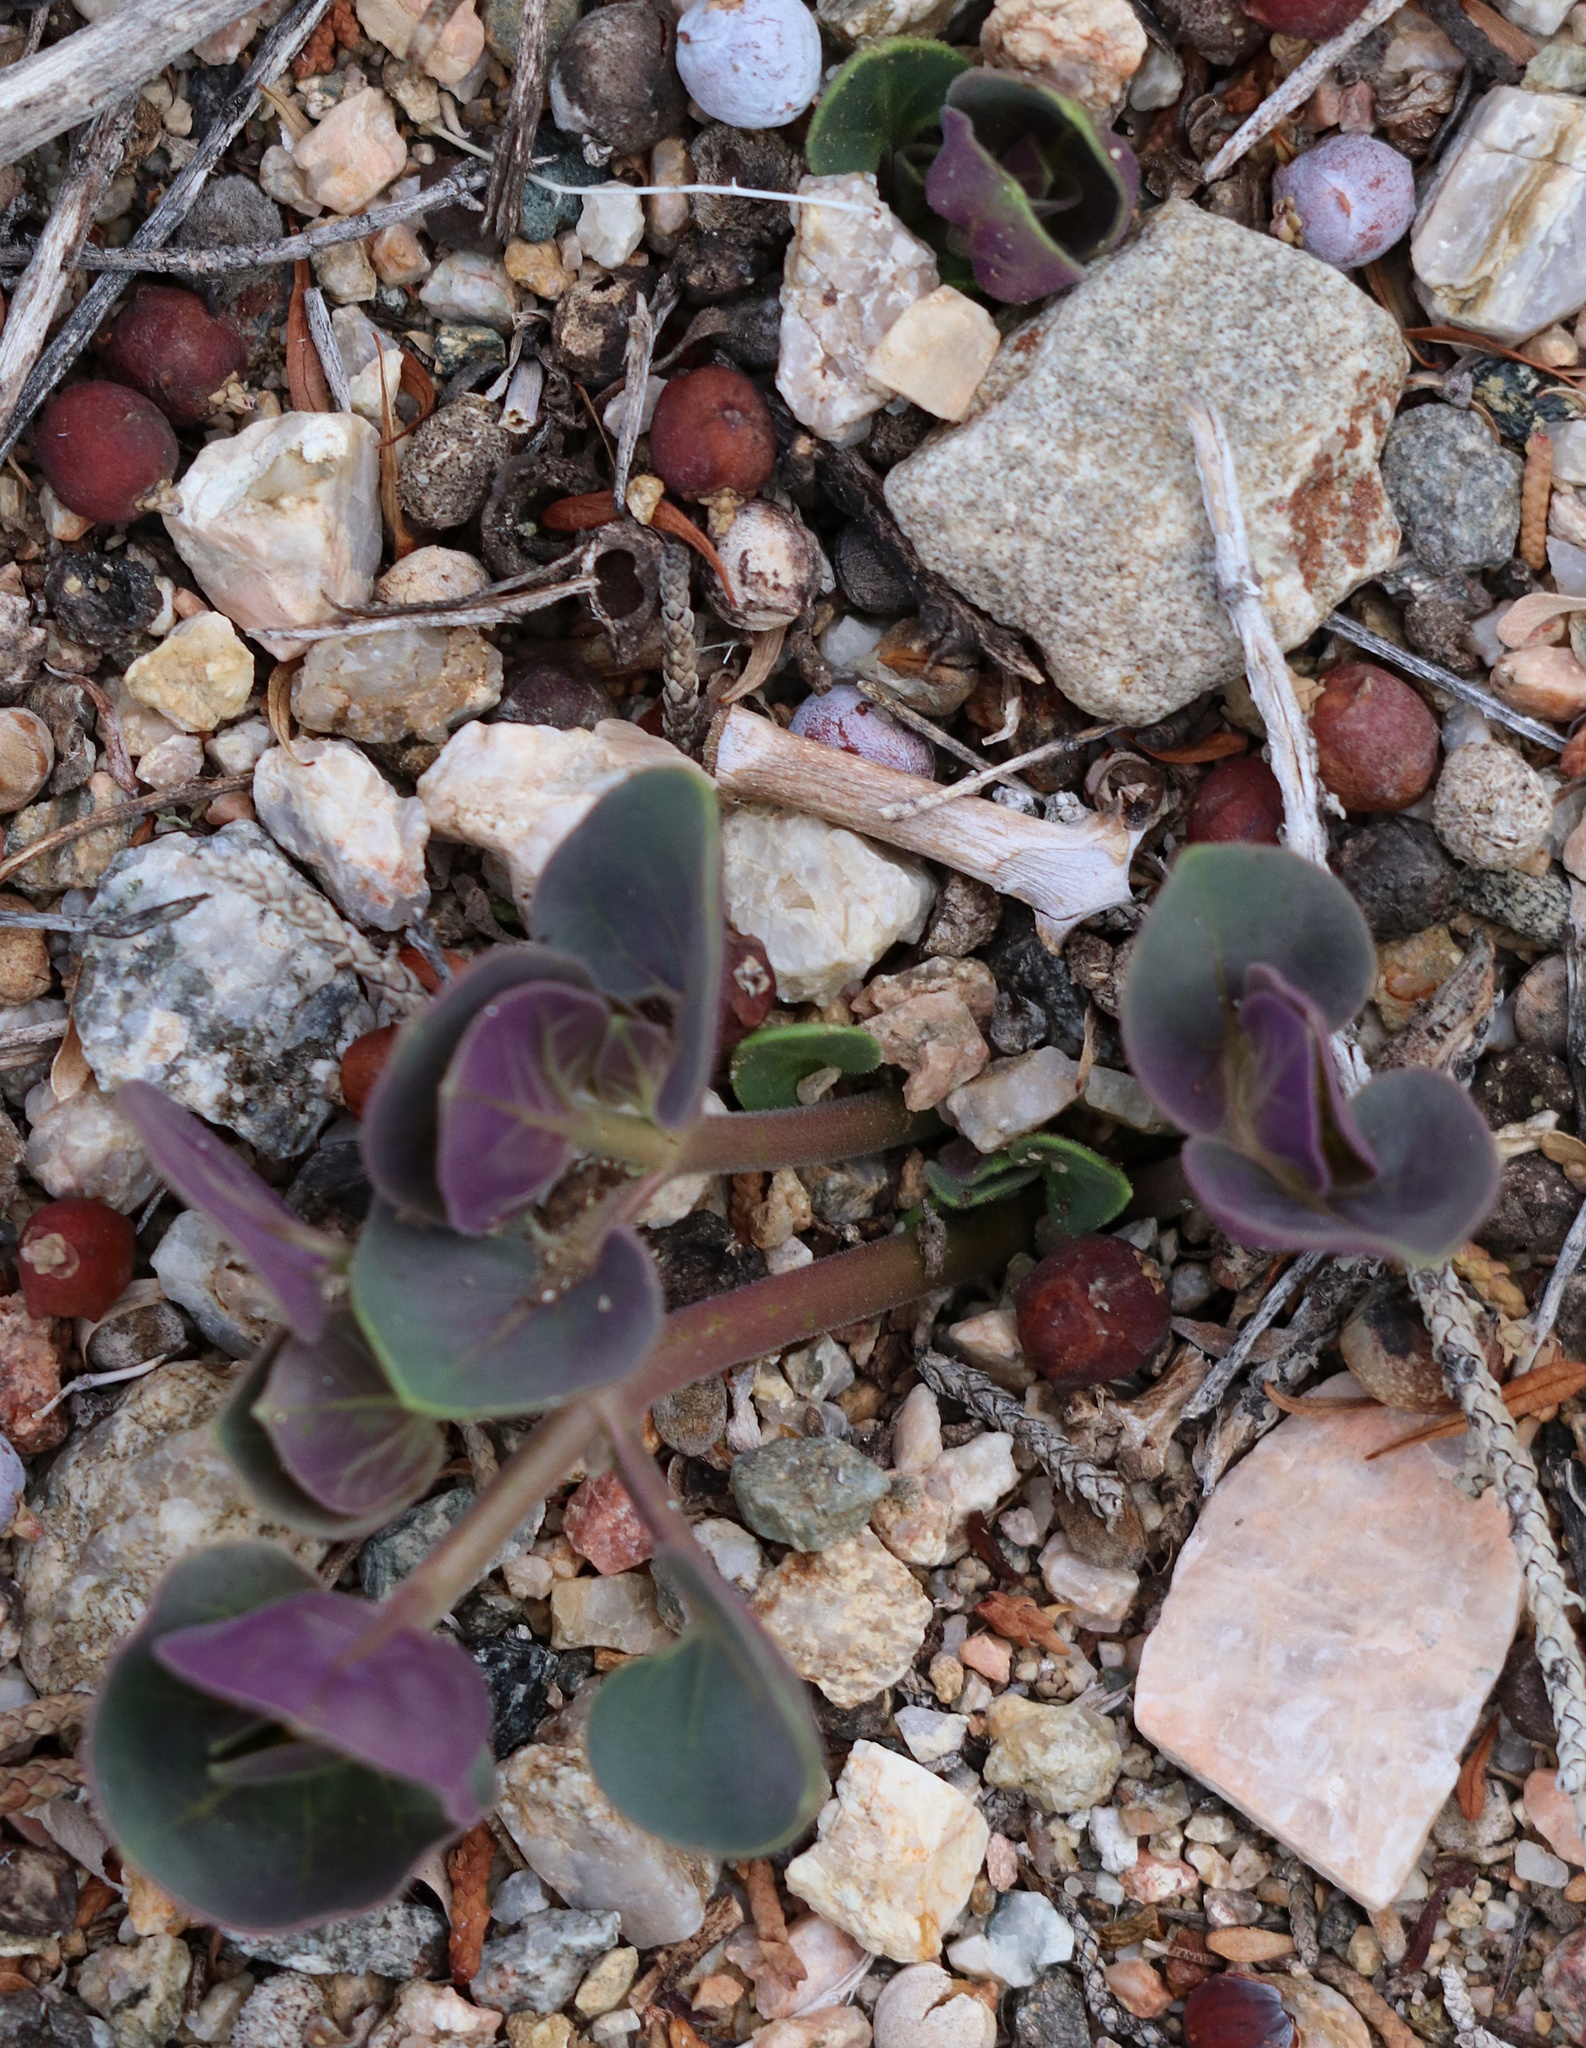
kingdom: Plantae
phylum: Tracheophyta
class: Magnoliopsida
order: Caryophyllales
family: Nyctaginaceae
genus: Mirabilis
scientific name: Mirabilis multiflora
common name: Froebel's four-o'clock
